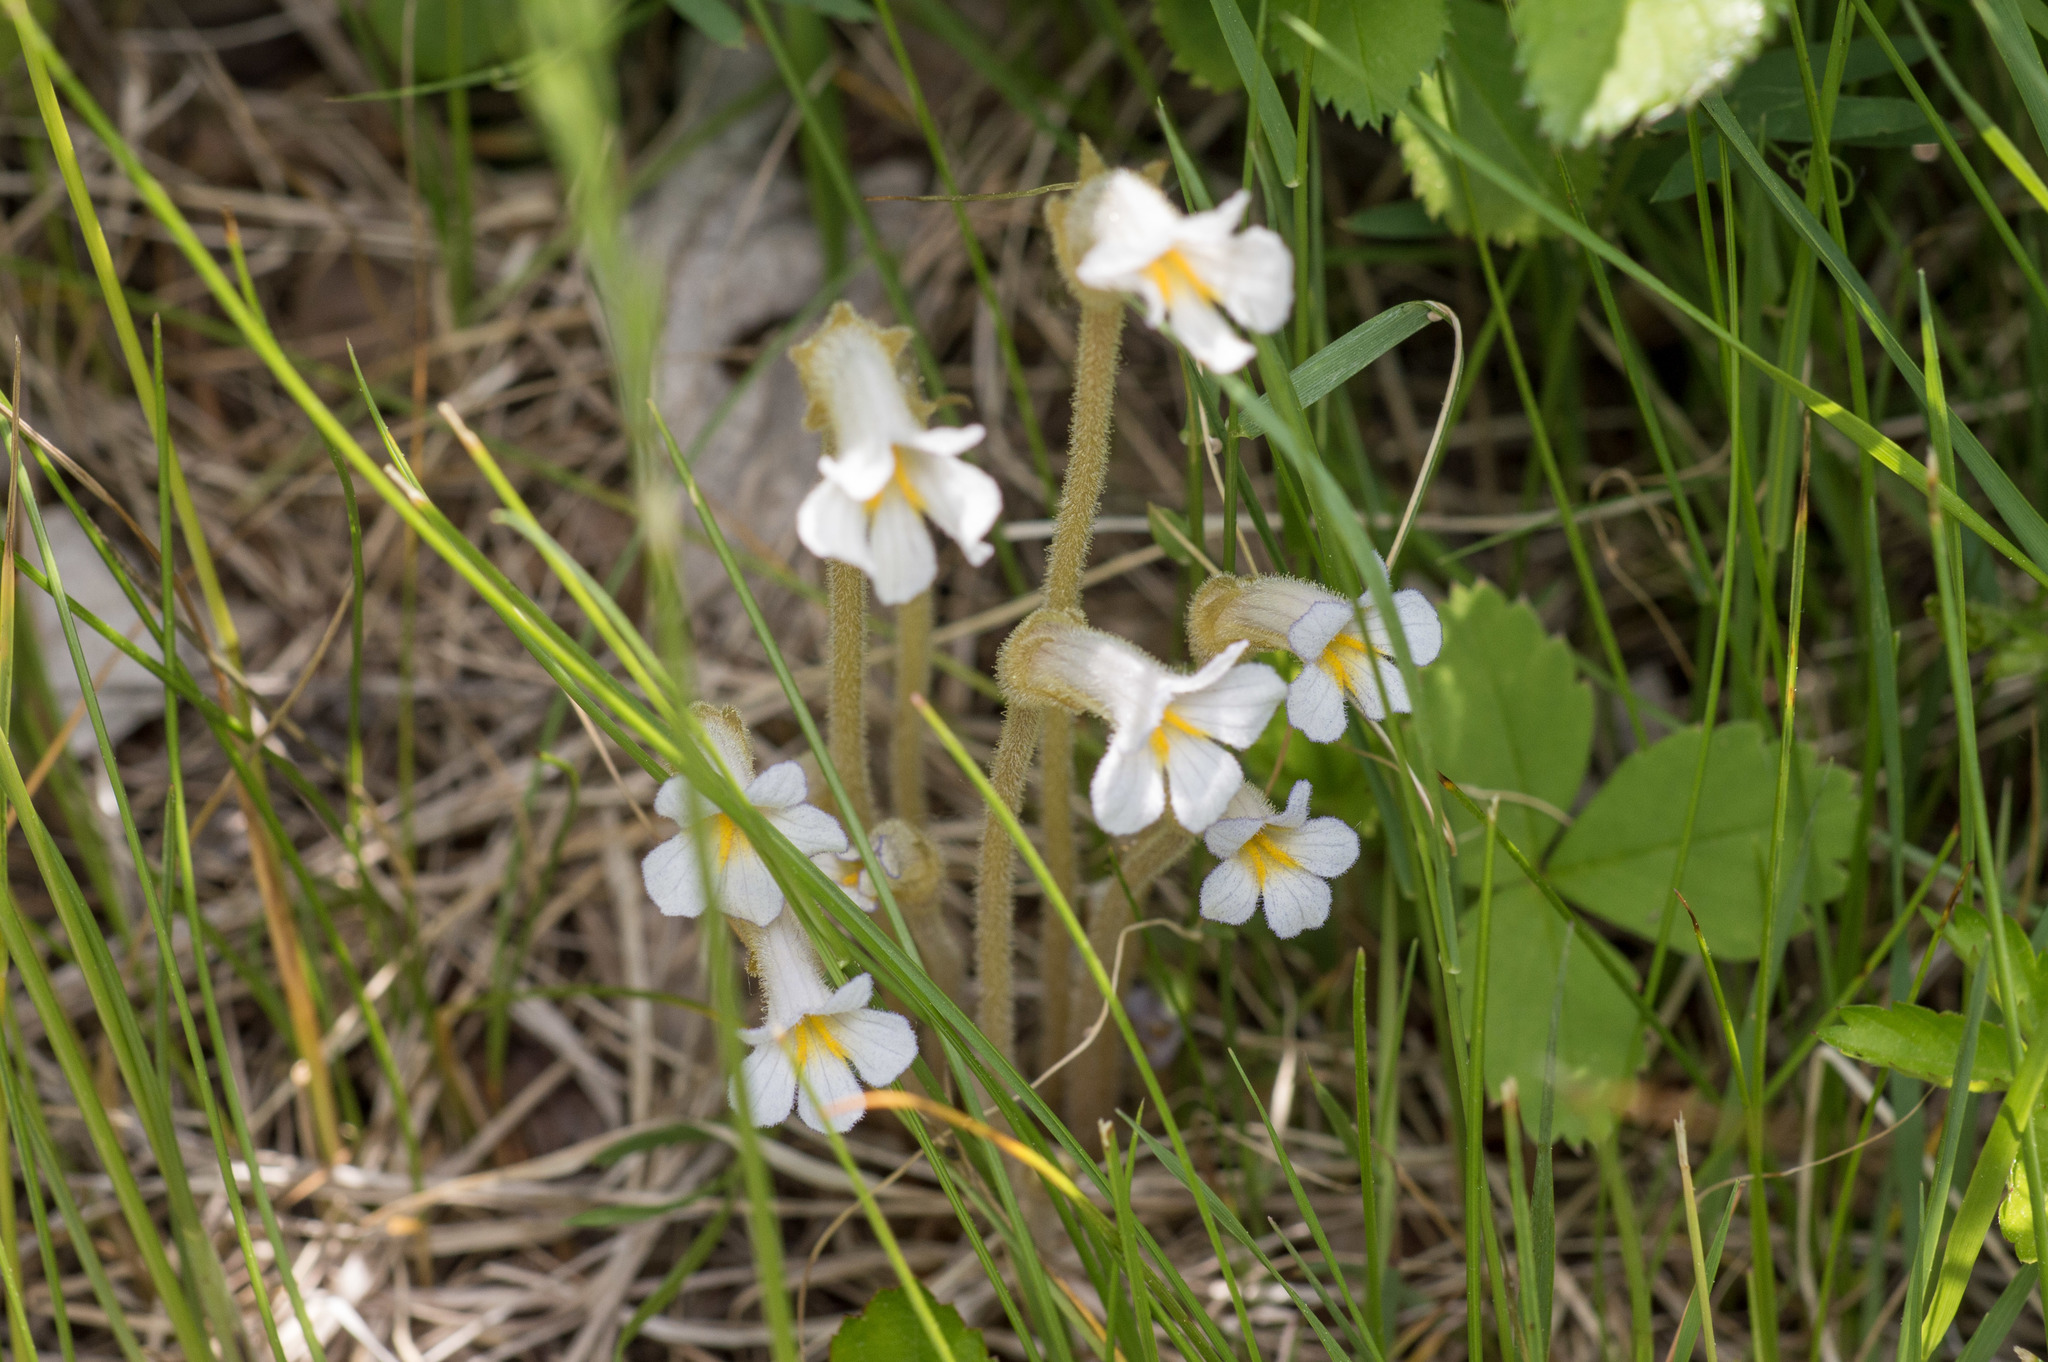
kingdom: Plantae
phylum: Tracheophyta
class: Magnoliopsida
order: Lamiales
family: Orobanchaceae
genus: Aphyllon
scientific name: Aphyllon uniflorum
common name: One-flowered broomrape
